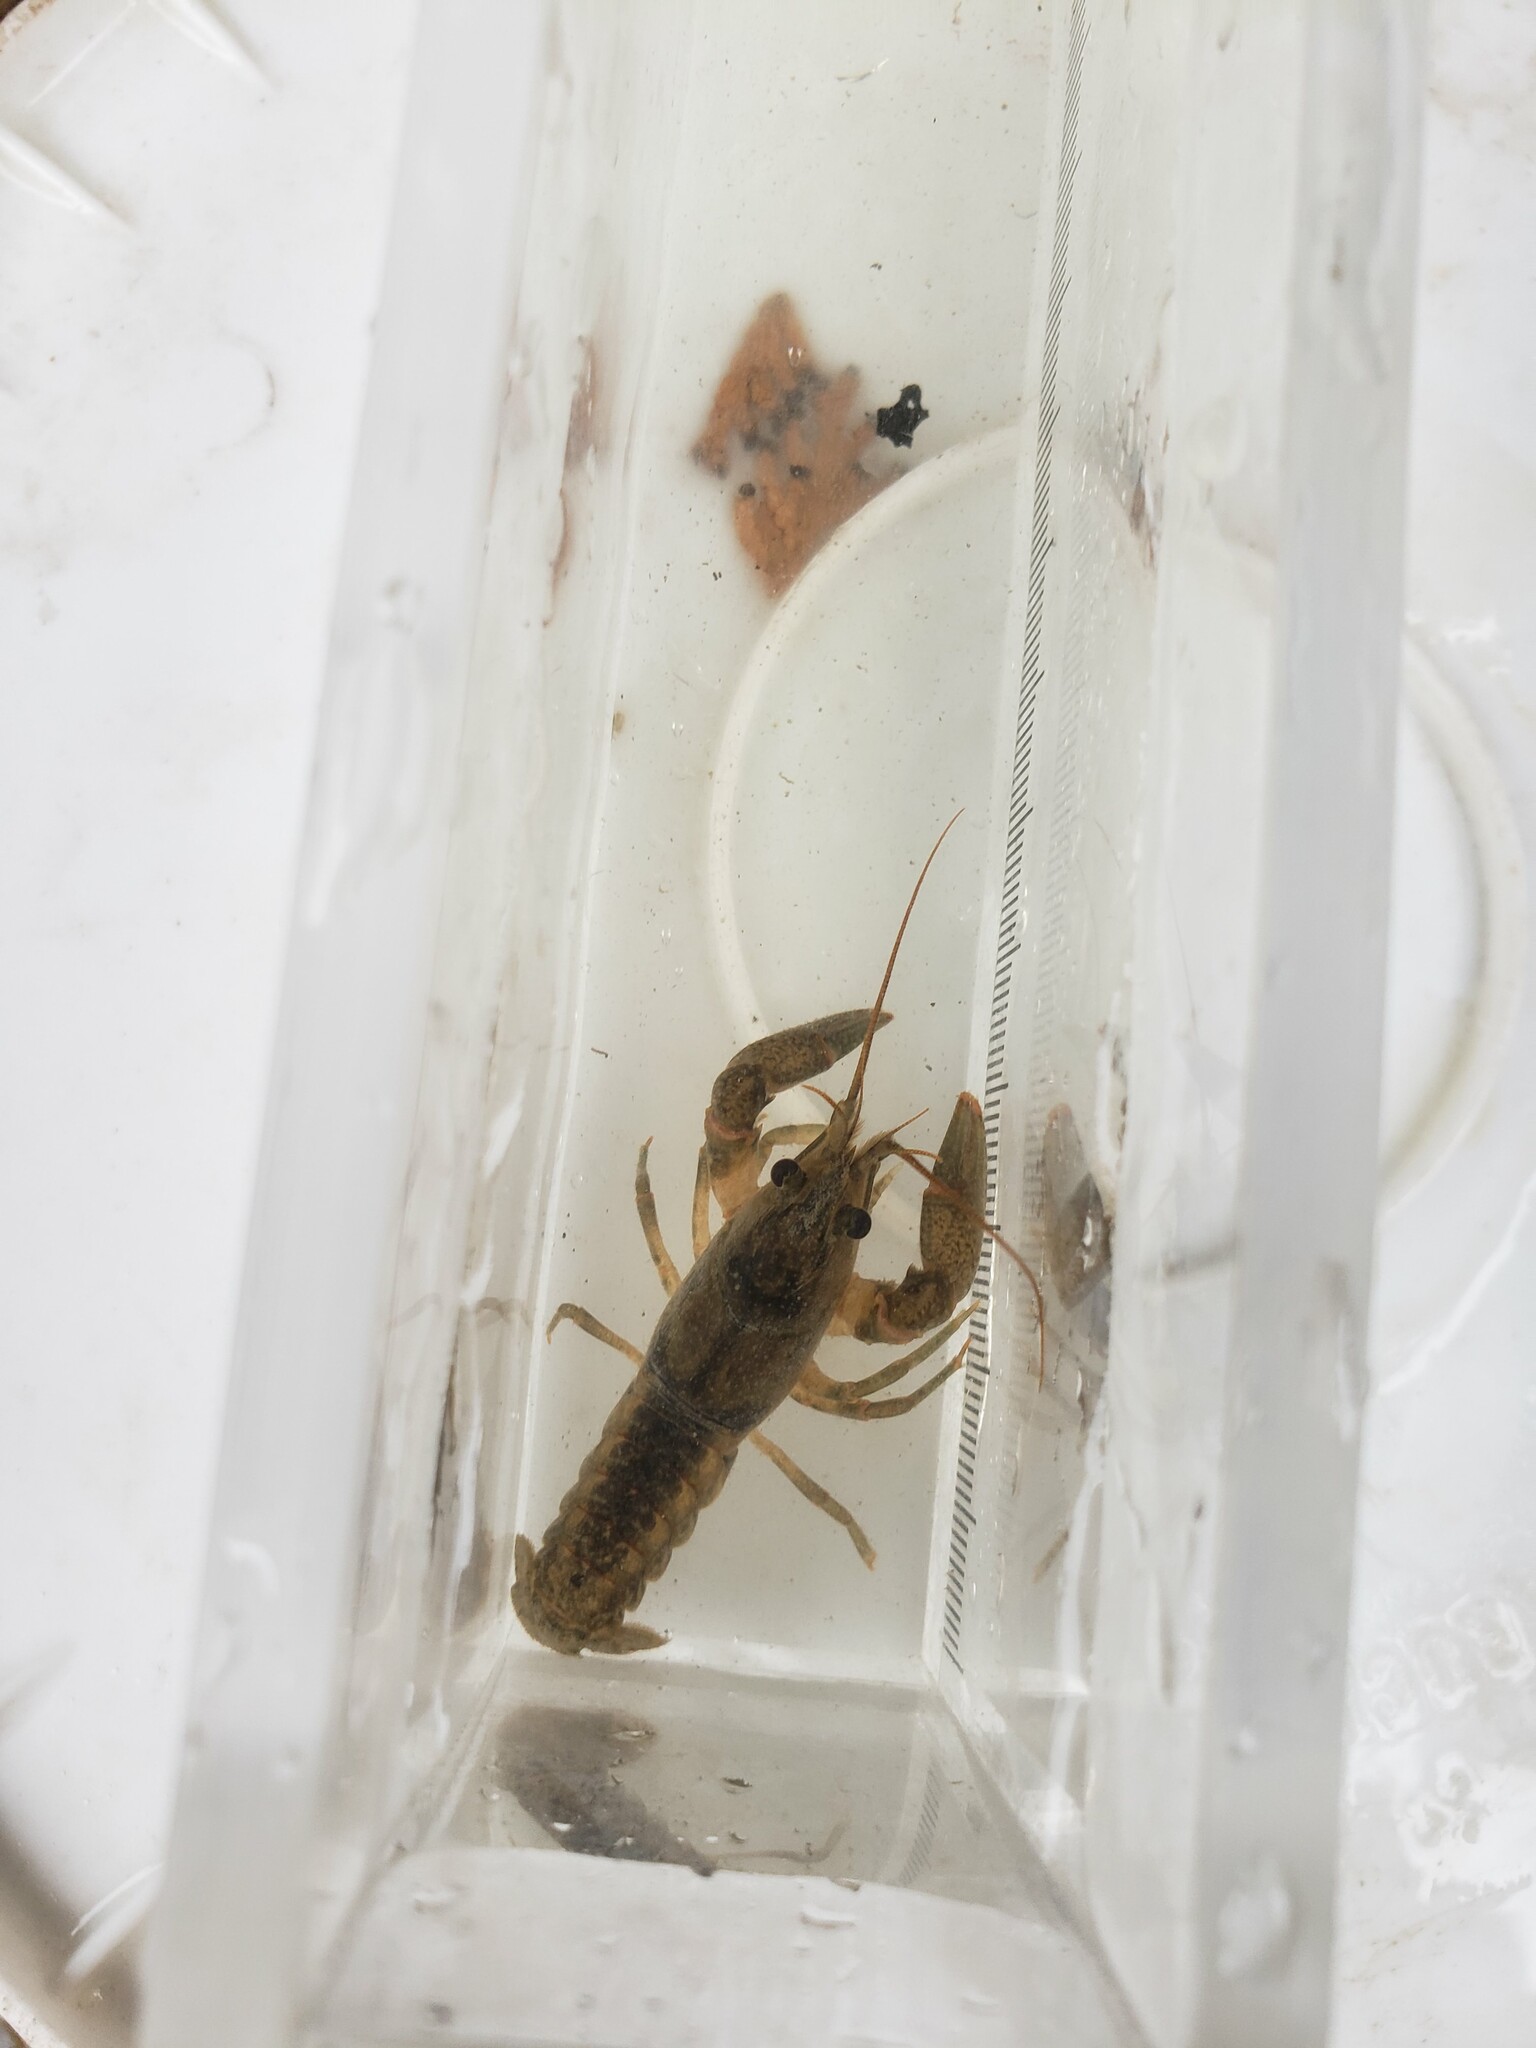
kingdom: Animalia
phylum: Arthropoda
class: Malacostraca
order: Decapoda
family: Cambaridae
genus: Faxonius
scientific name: Faxonius propinquus
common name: Northern clearwater crayfish
